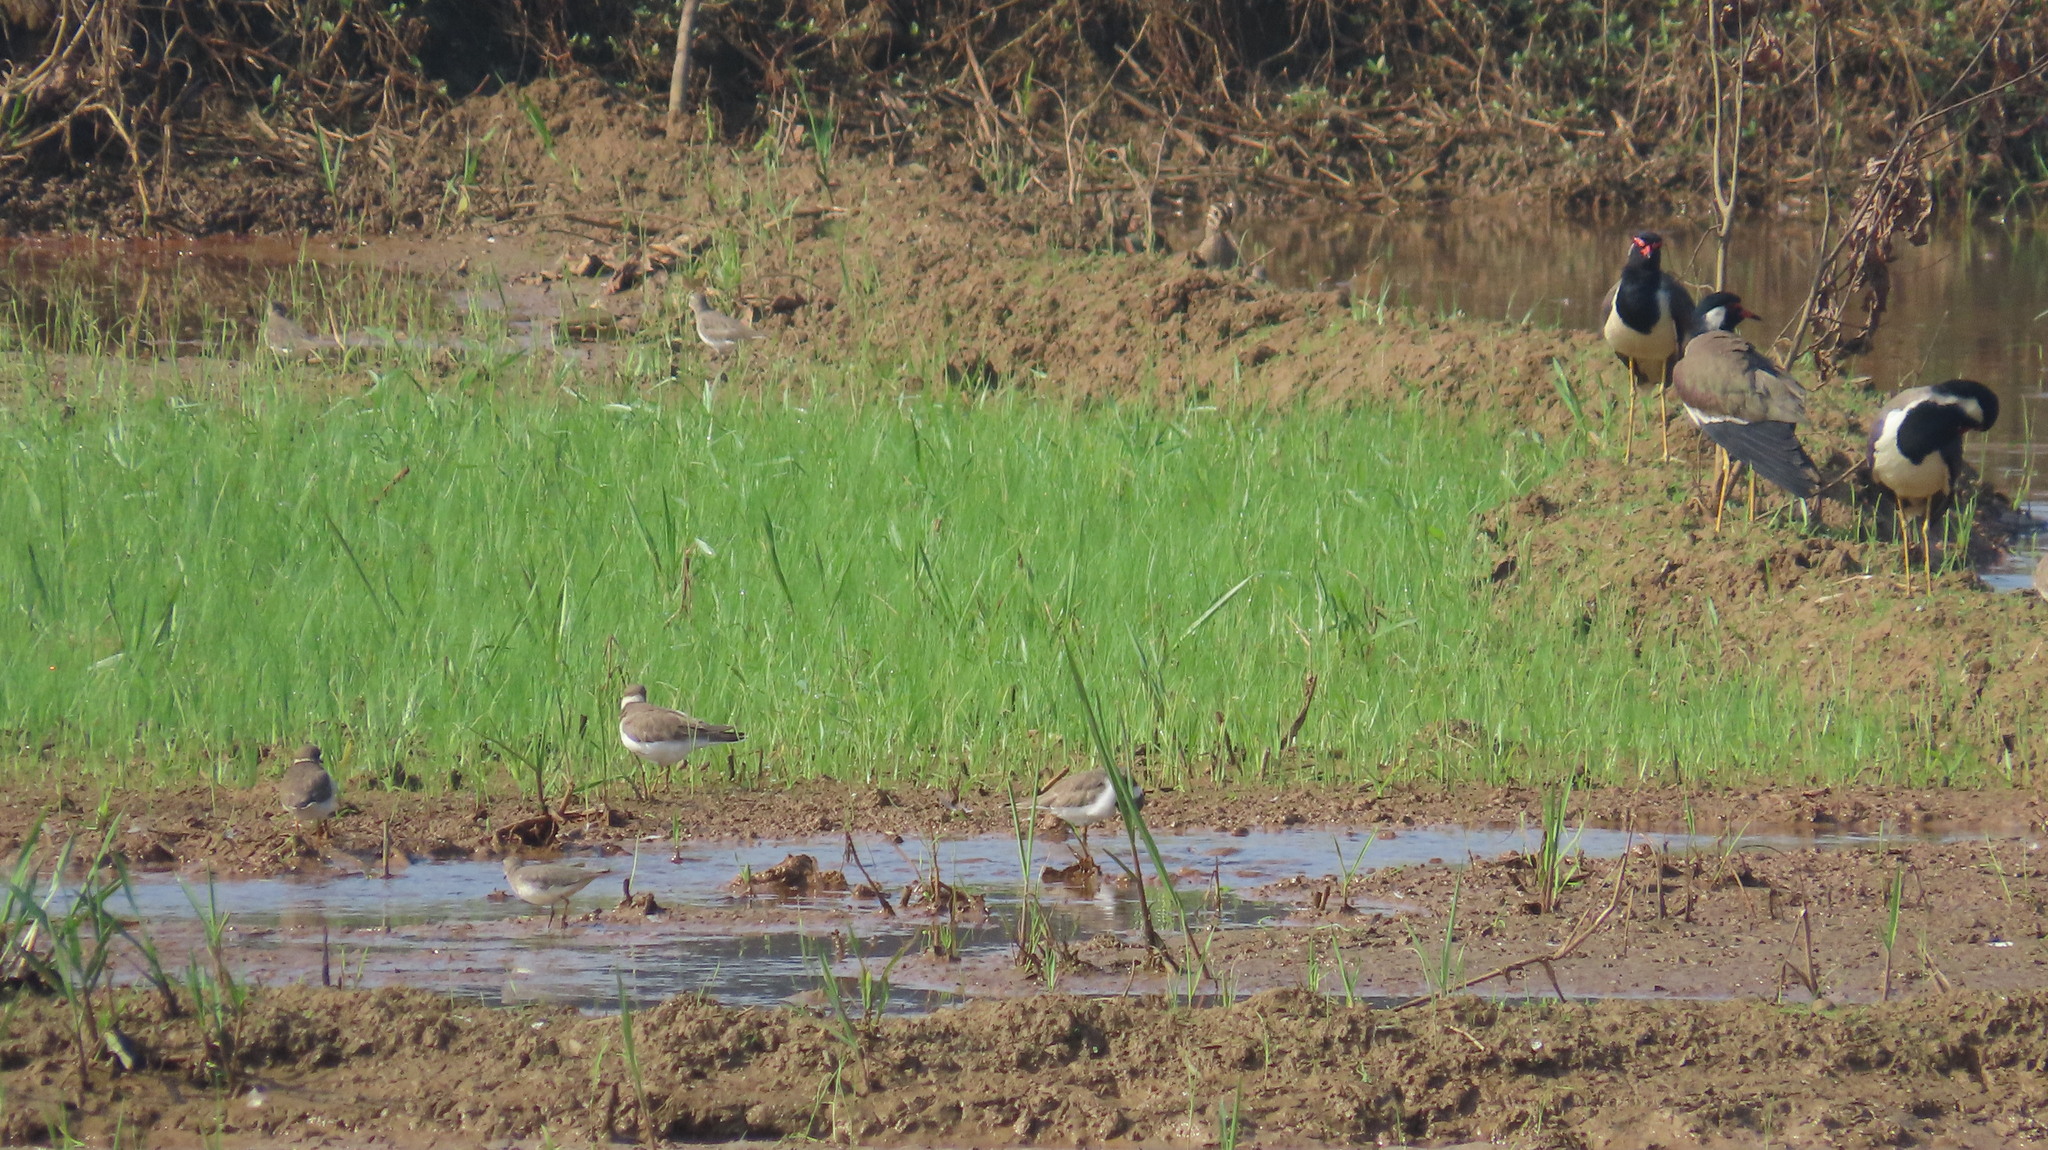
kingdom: Animalia
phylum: Chordata
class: Aves
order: Charadriiformes
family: Scolopacidae
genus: Calidris
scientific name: Calidris temminckii
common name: Temminck's stint
